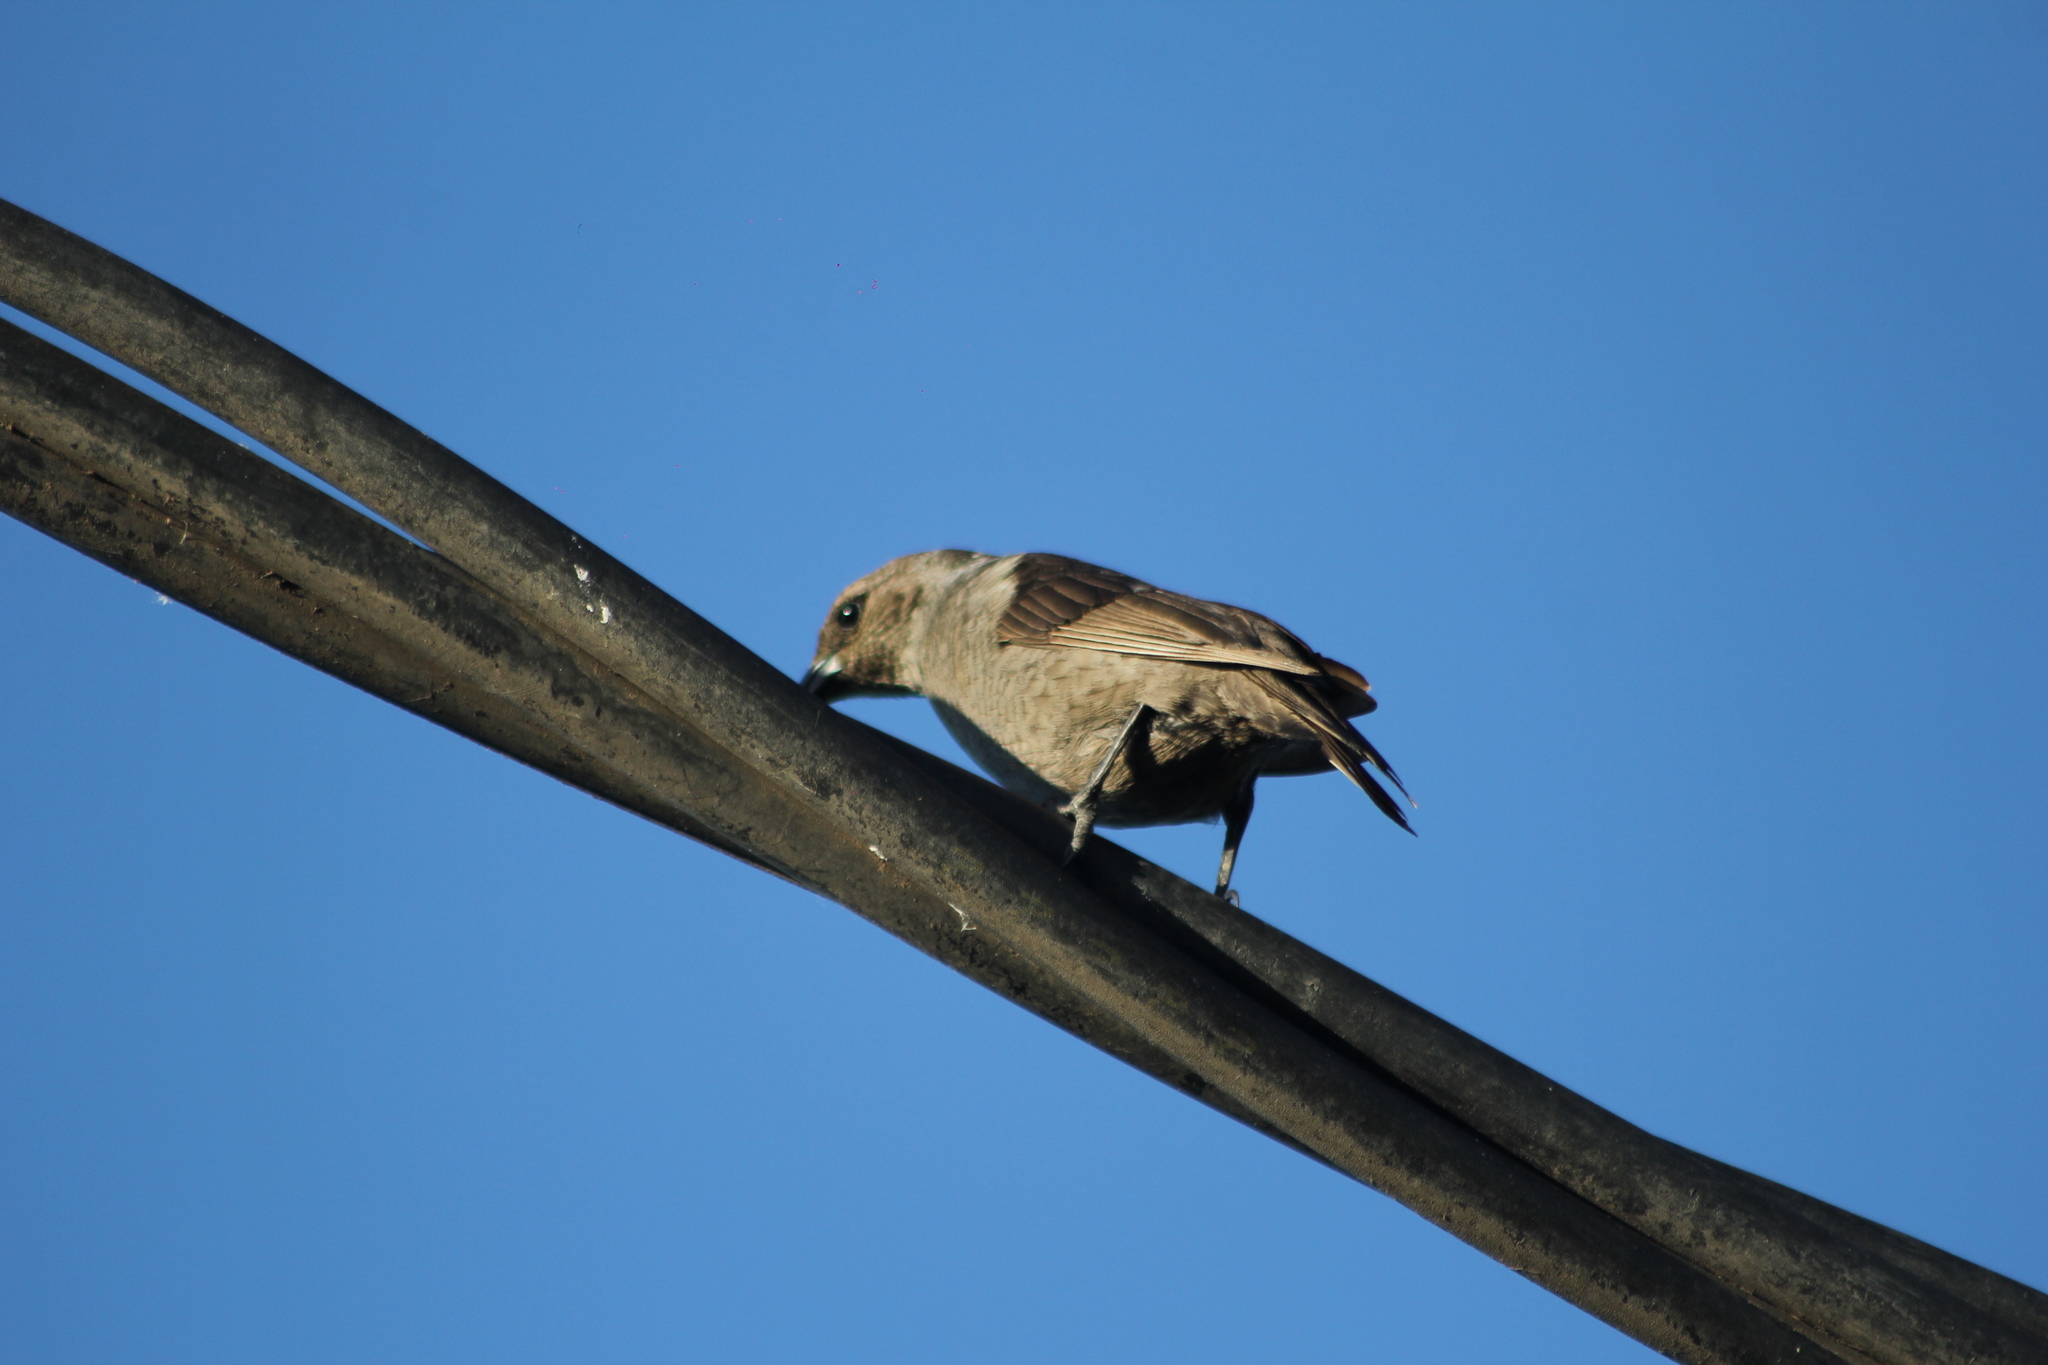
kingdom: Animalia
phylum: Chordata
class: Aves
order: Passeriformes
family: Icteridae
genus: Molothrus
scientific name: Molothrus bonariensis
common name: Shiny cowbird
